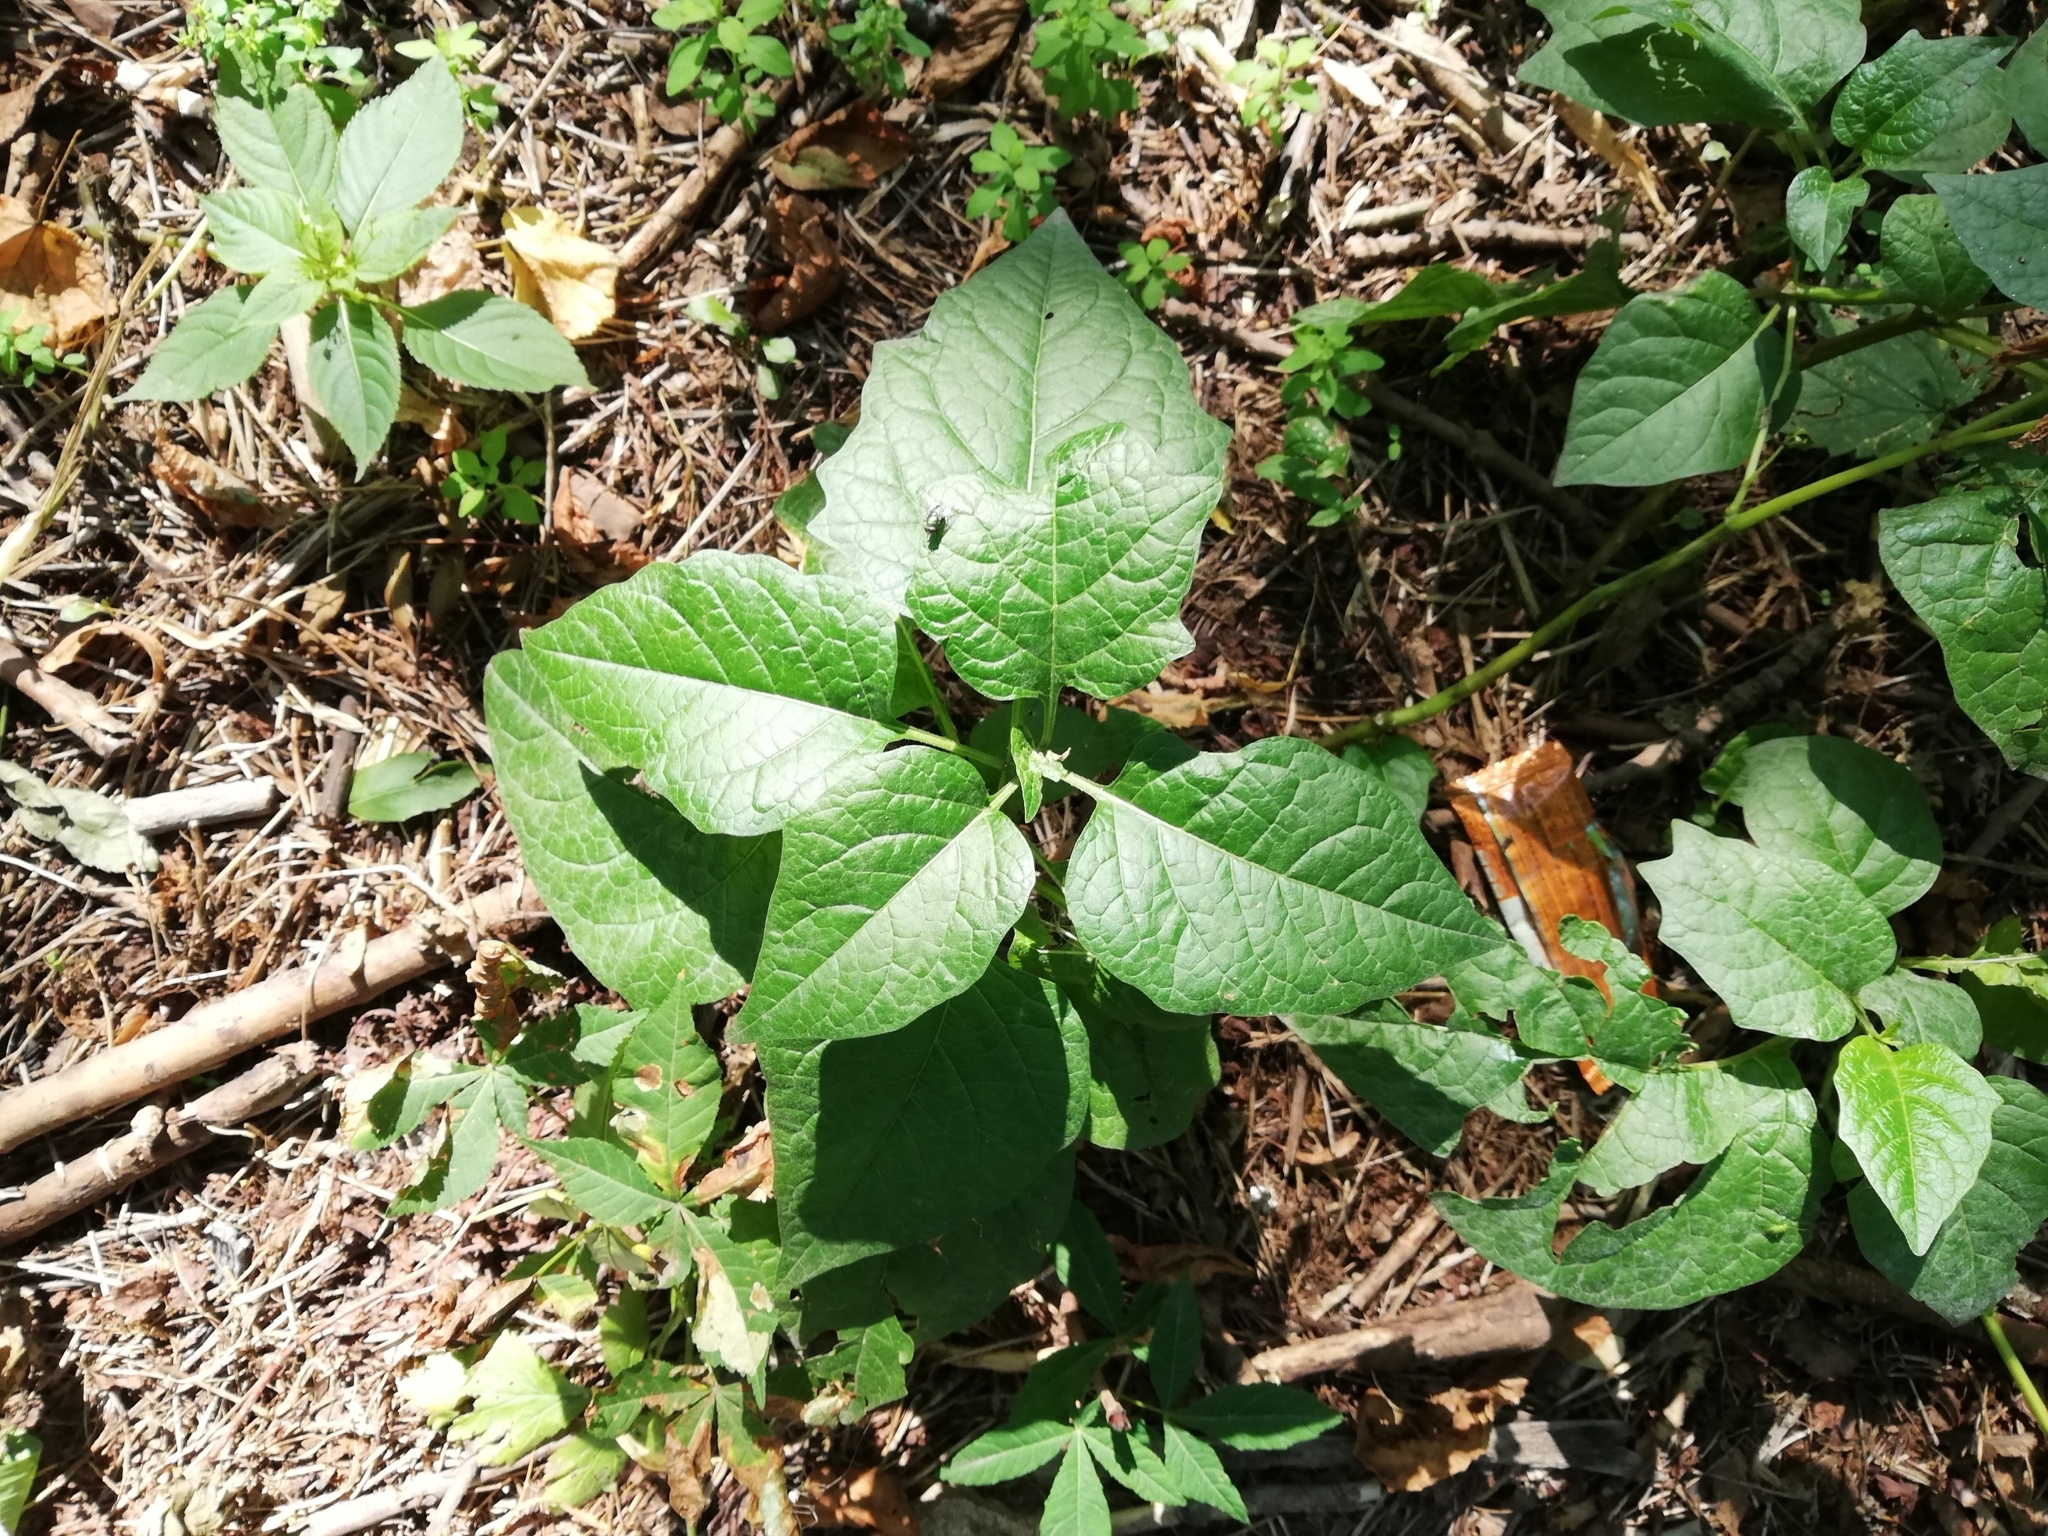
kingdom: Plantae
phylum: Tracheophyta
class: Magnoliopsida
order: Solanales
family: Solanaceae
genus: Alkekengi
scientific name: Alkekengi officinarum
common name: Japanese-lantern
